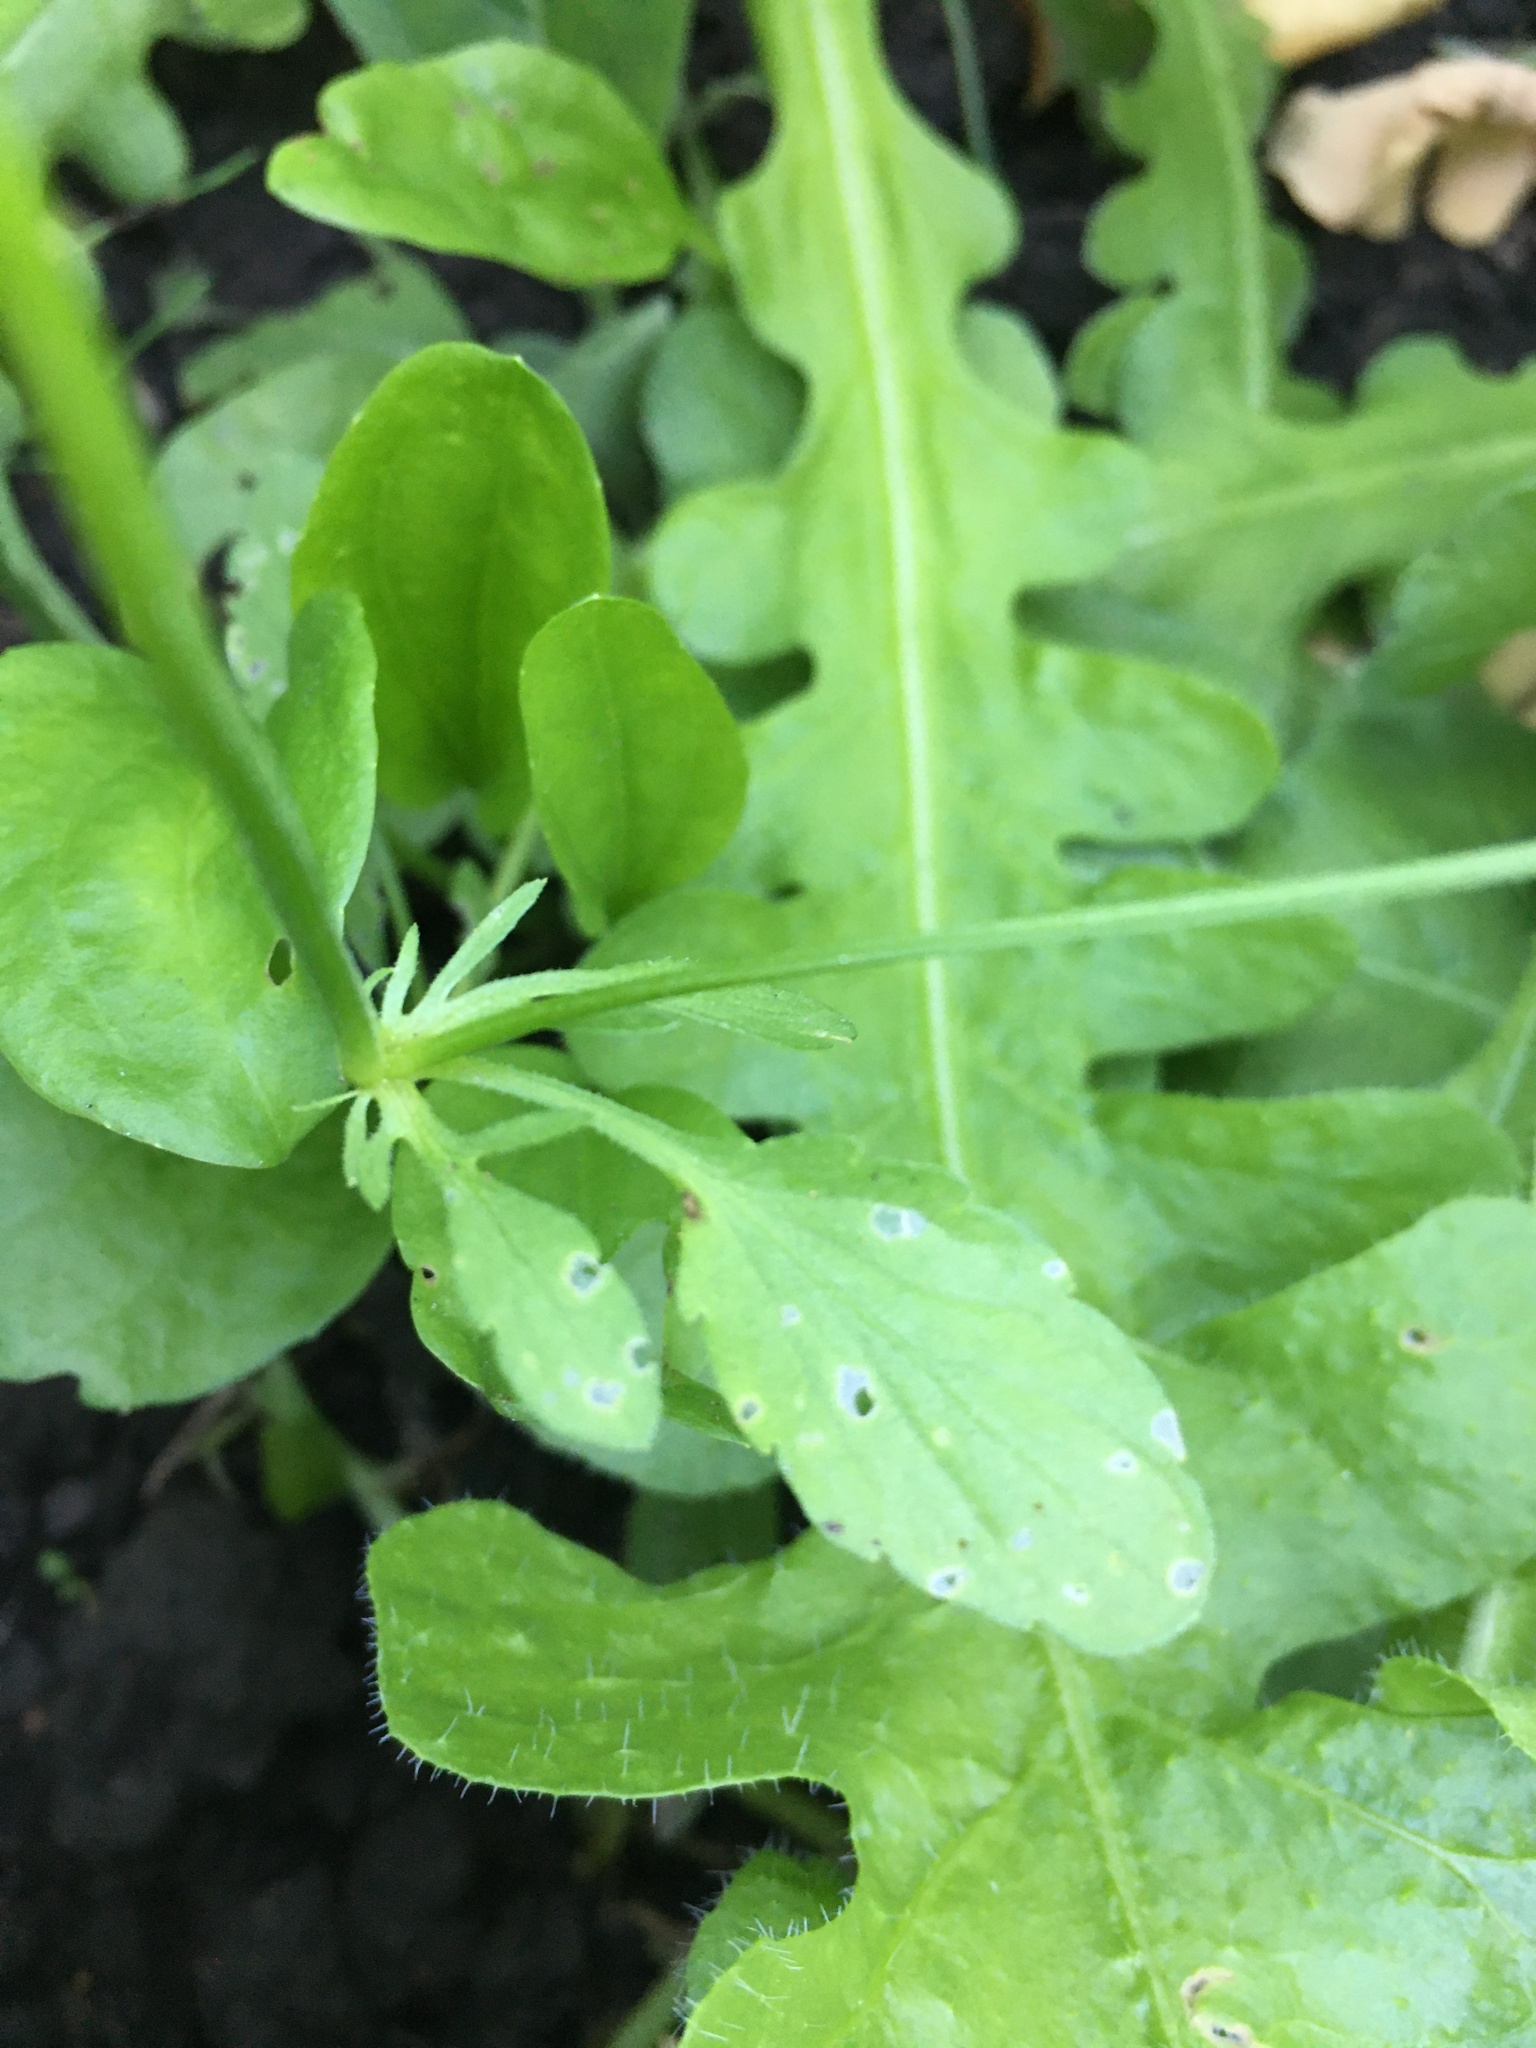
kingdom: Plantae
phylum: Tracheophyta
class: Magnoliopsida
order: Malpighiales
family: Violaceae
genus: Viola
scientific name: Viola arvensis
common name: Field pansy
